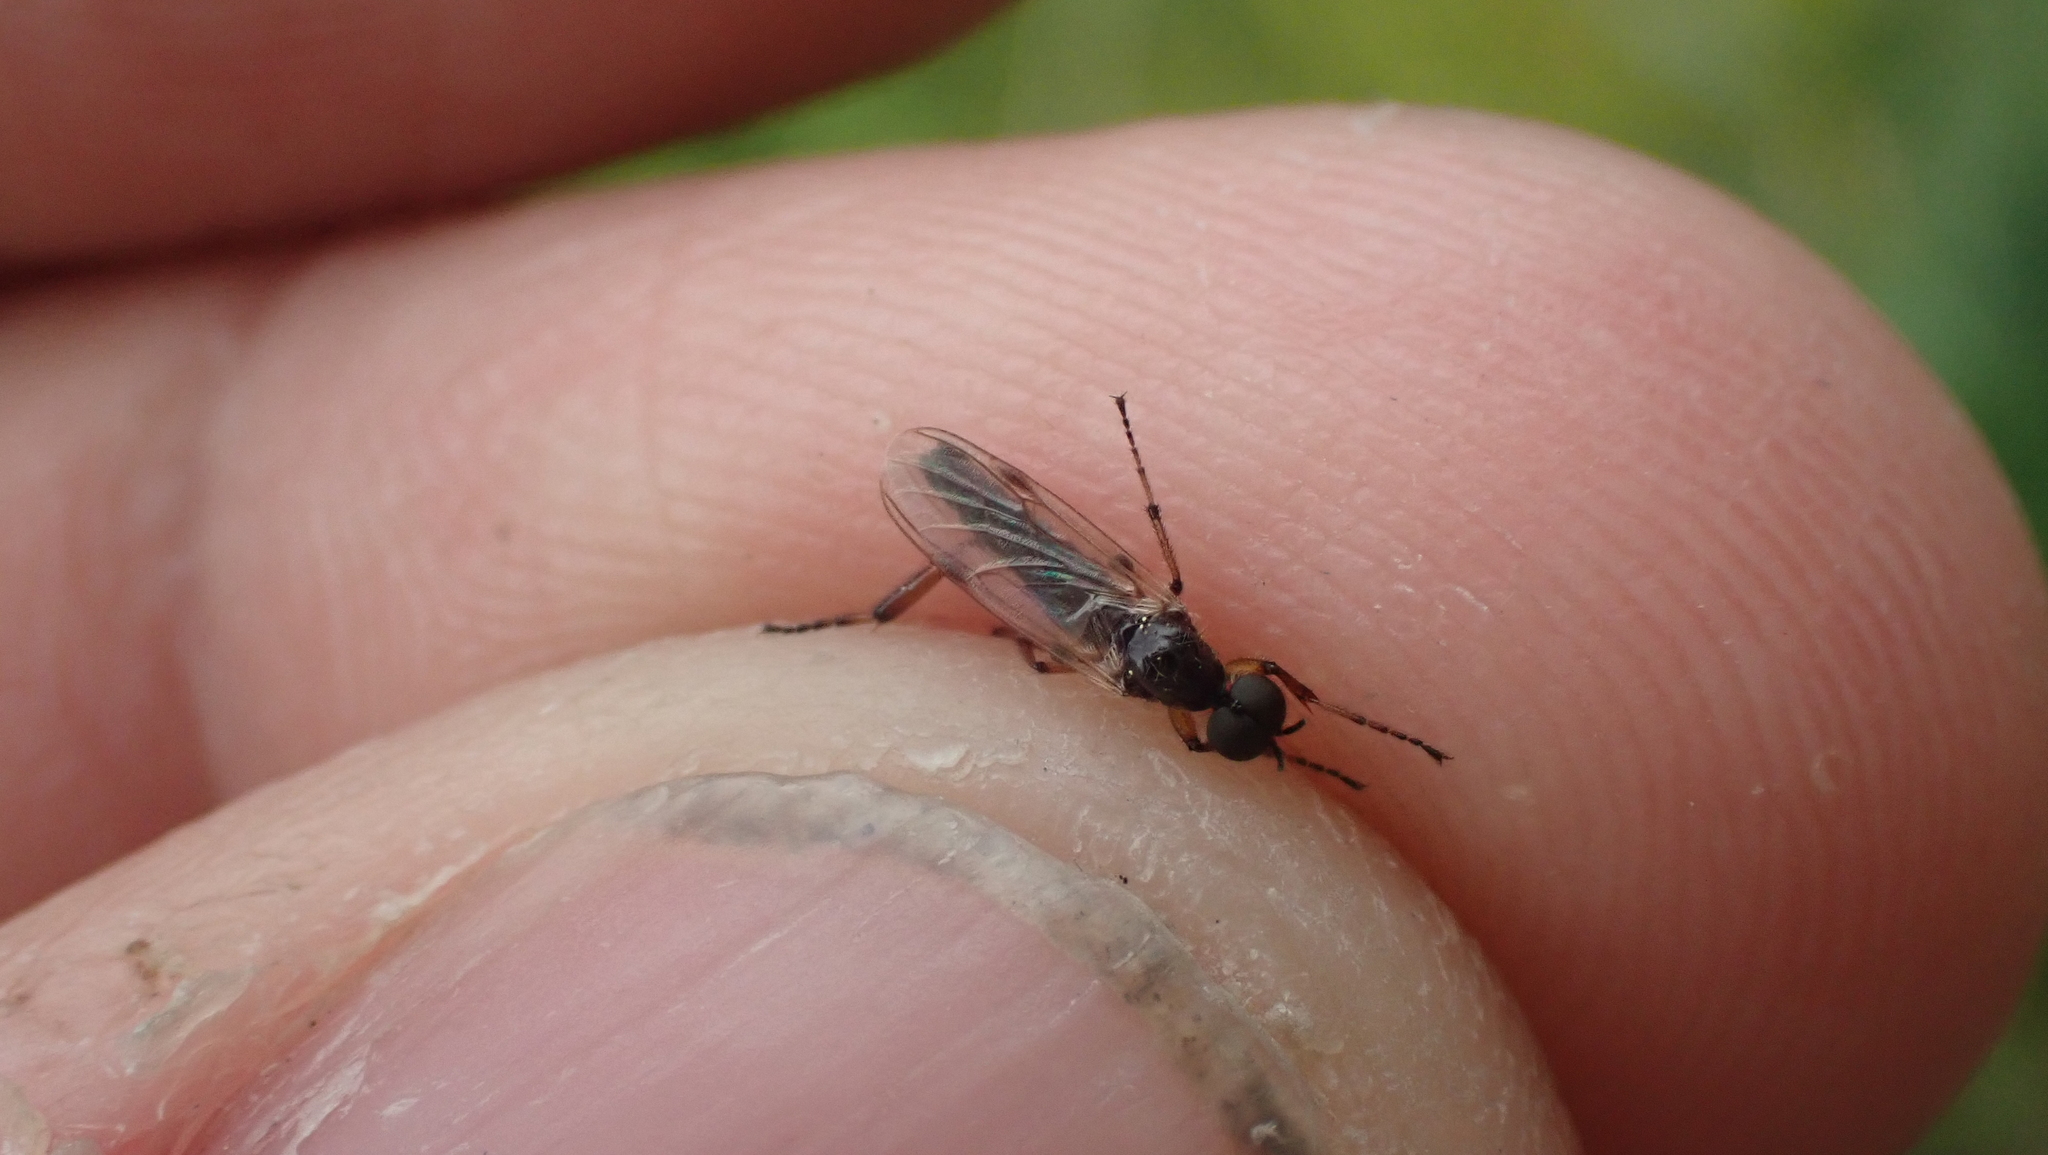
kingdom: Animalia
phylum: Arthropoda
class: Insecta
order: Diptera
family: Bibionidae
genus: Bibio
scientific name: Bibio articulatus
